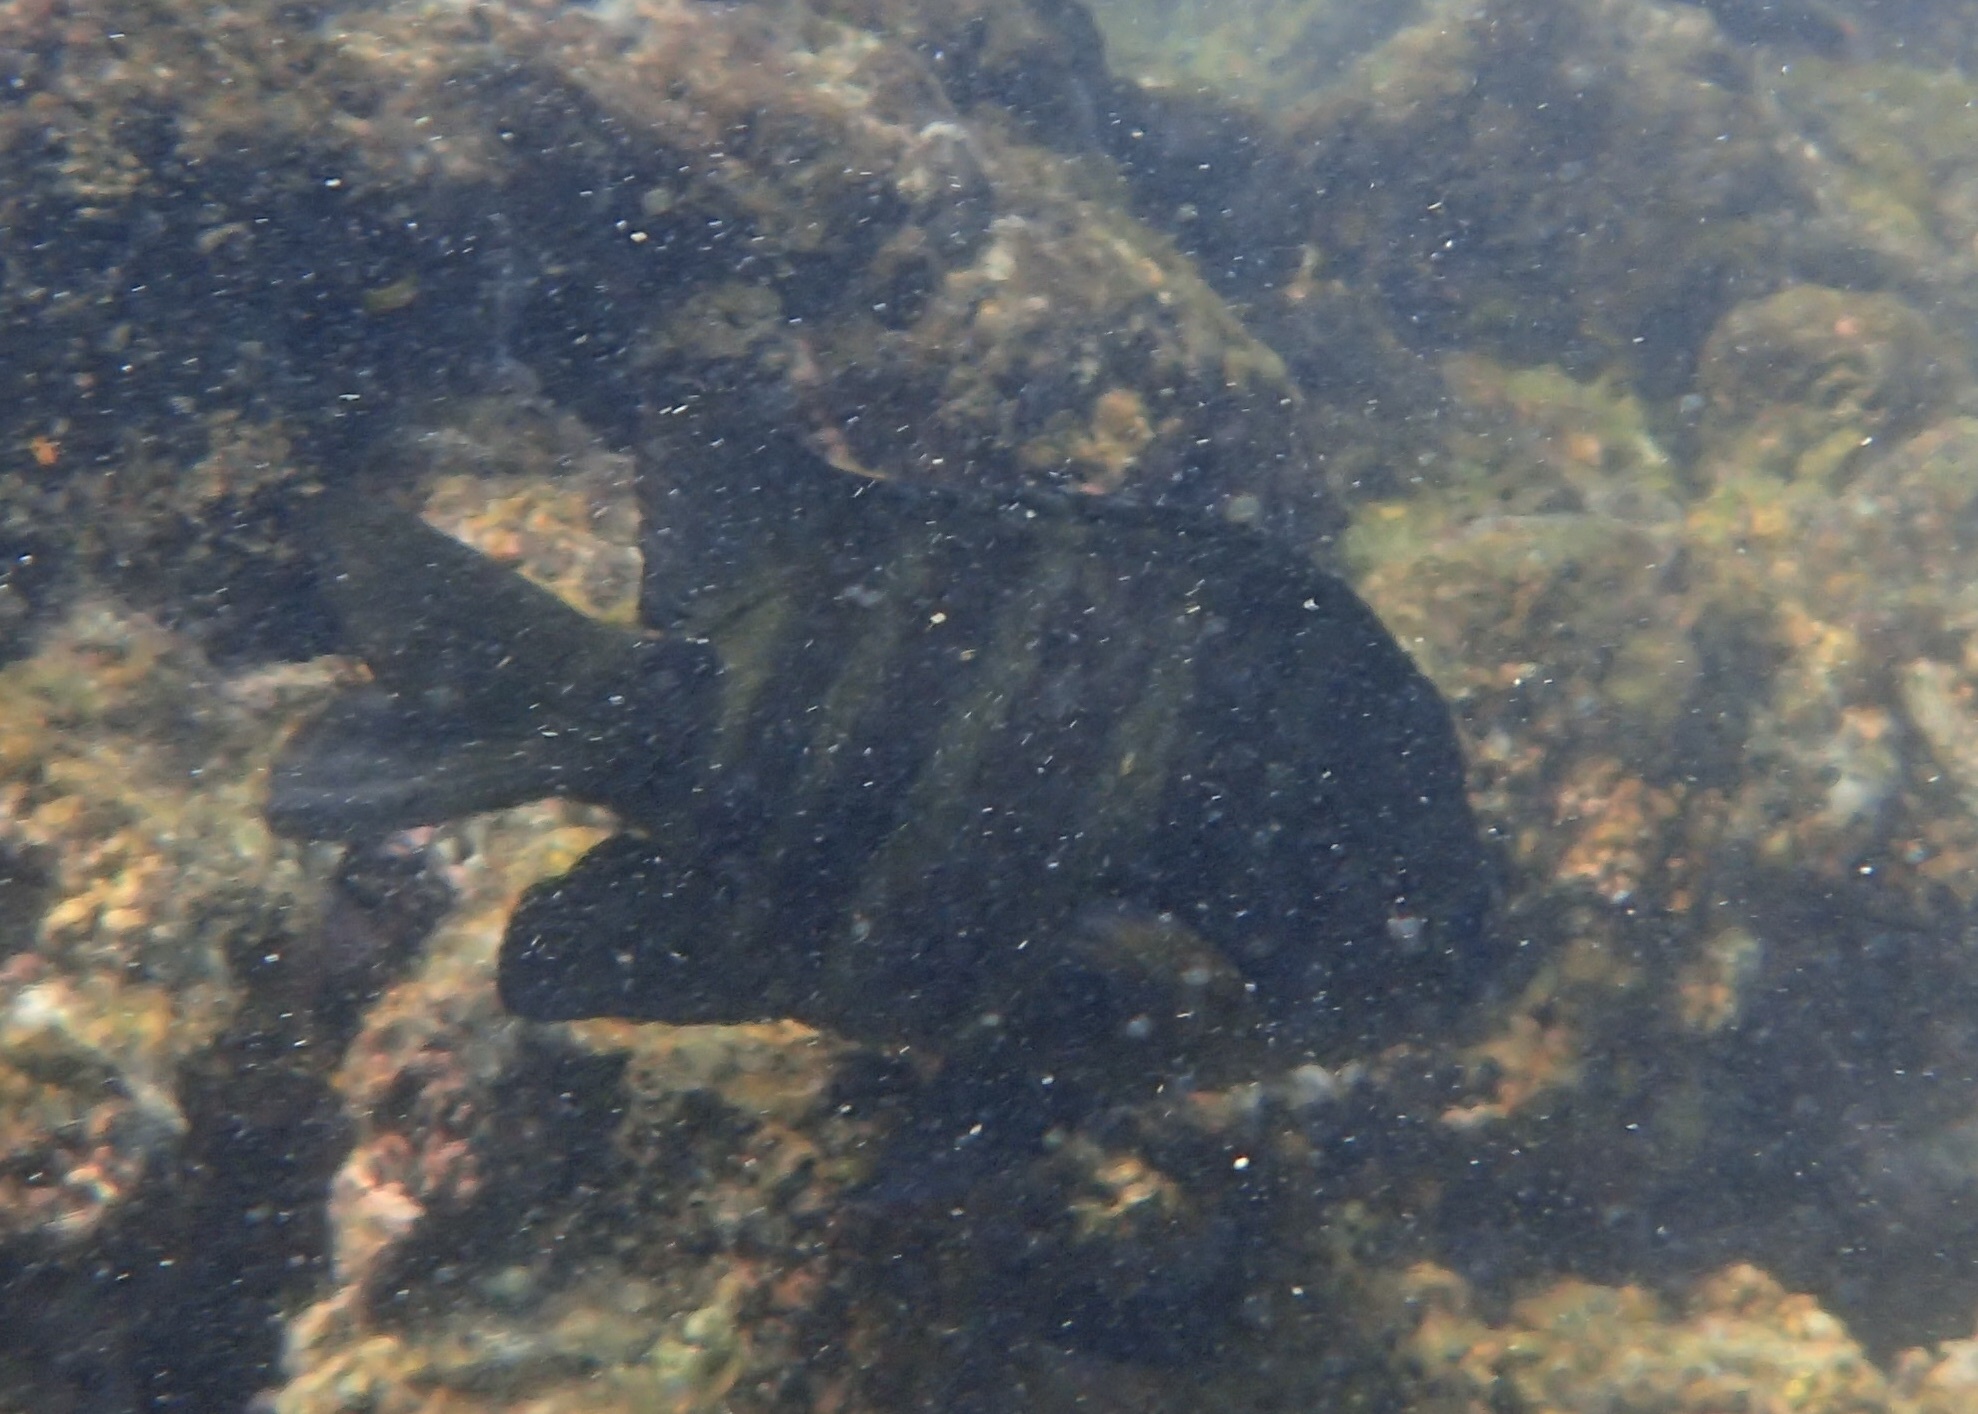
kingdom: Animalia
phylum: Chordata
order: Perciformes
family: Pomacentridae
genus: Abudefduf
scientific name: Abudefduf sordidus
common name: Blackspot sergeant
